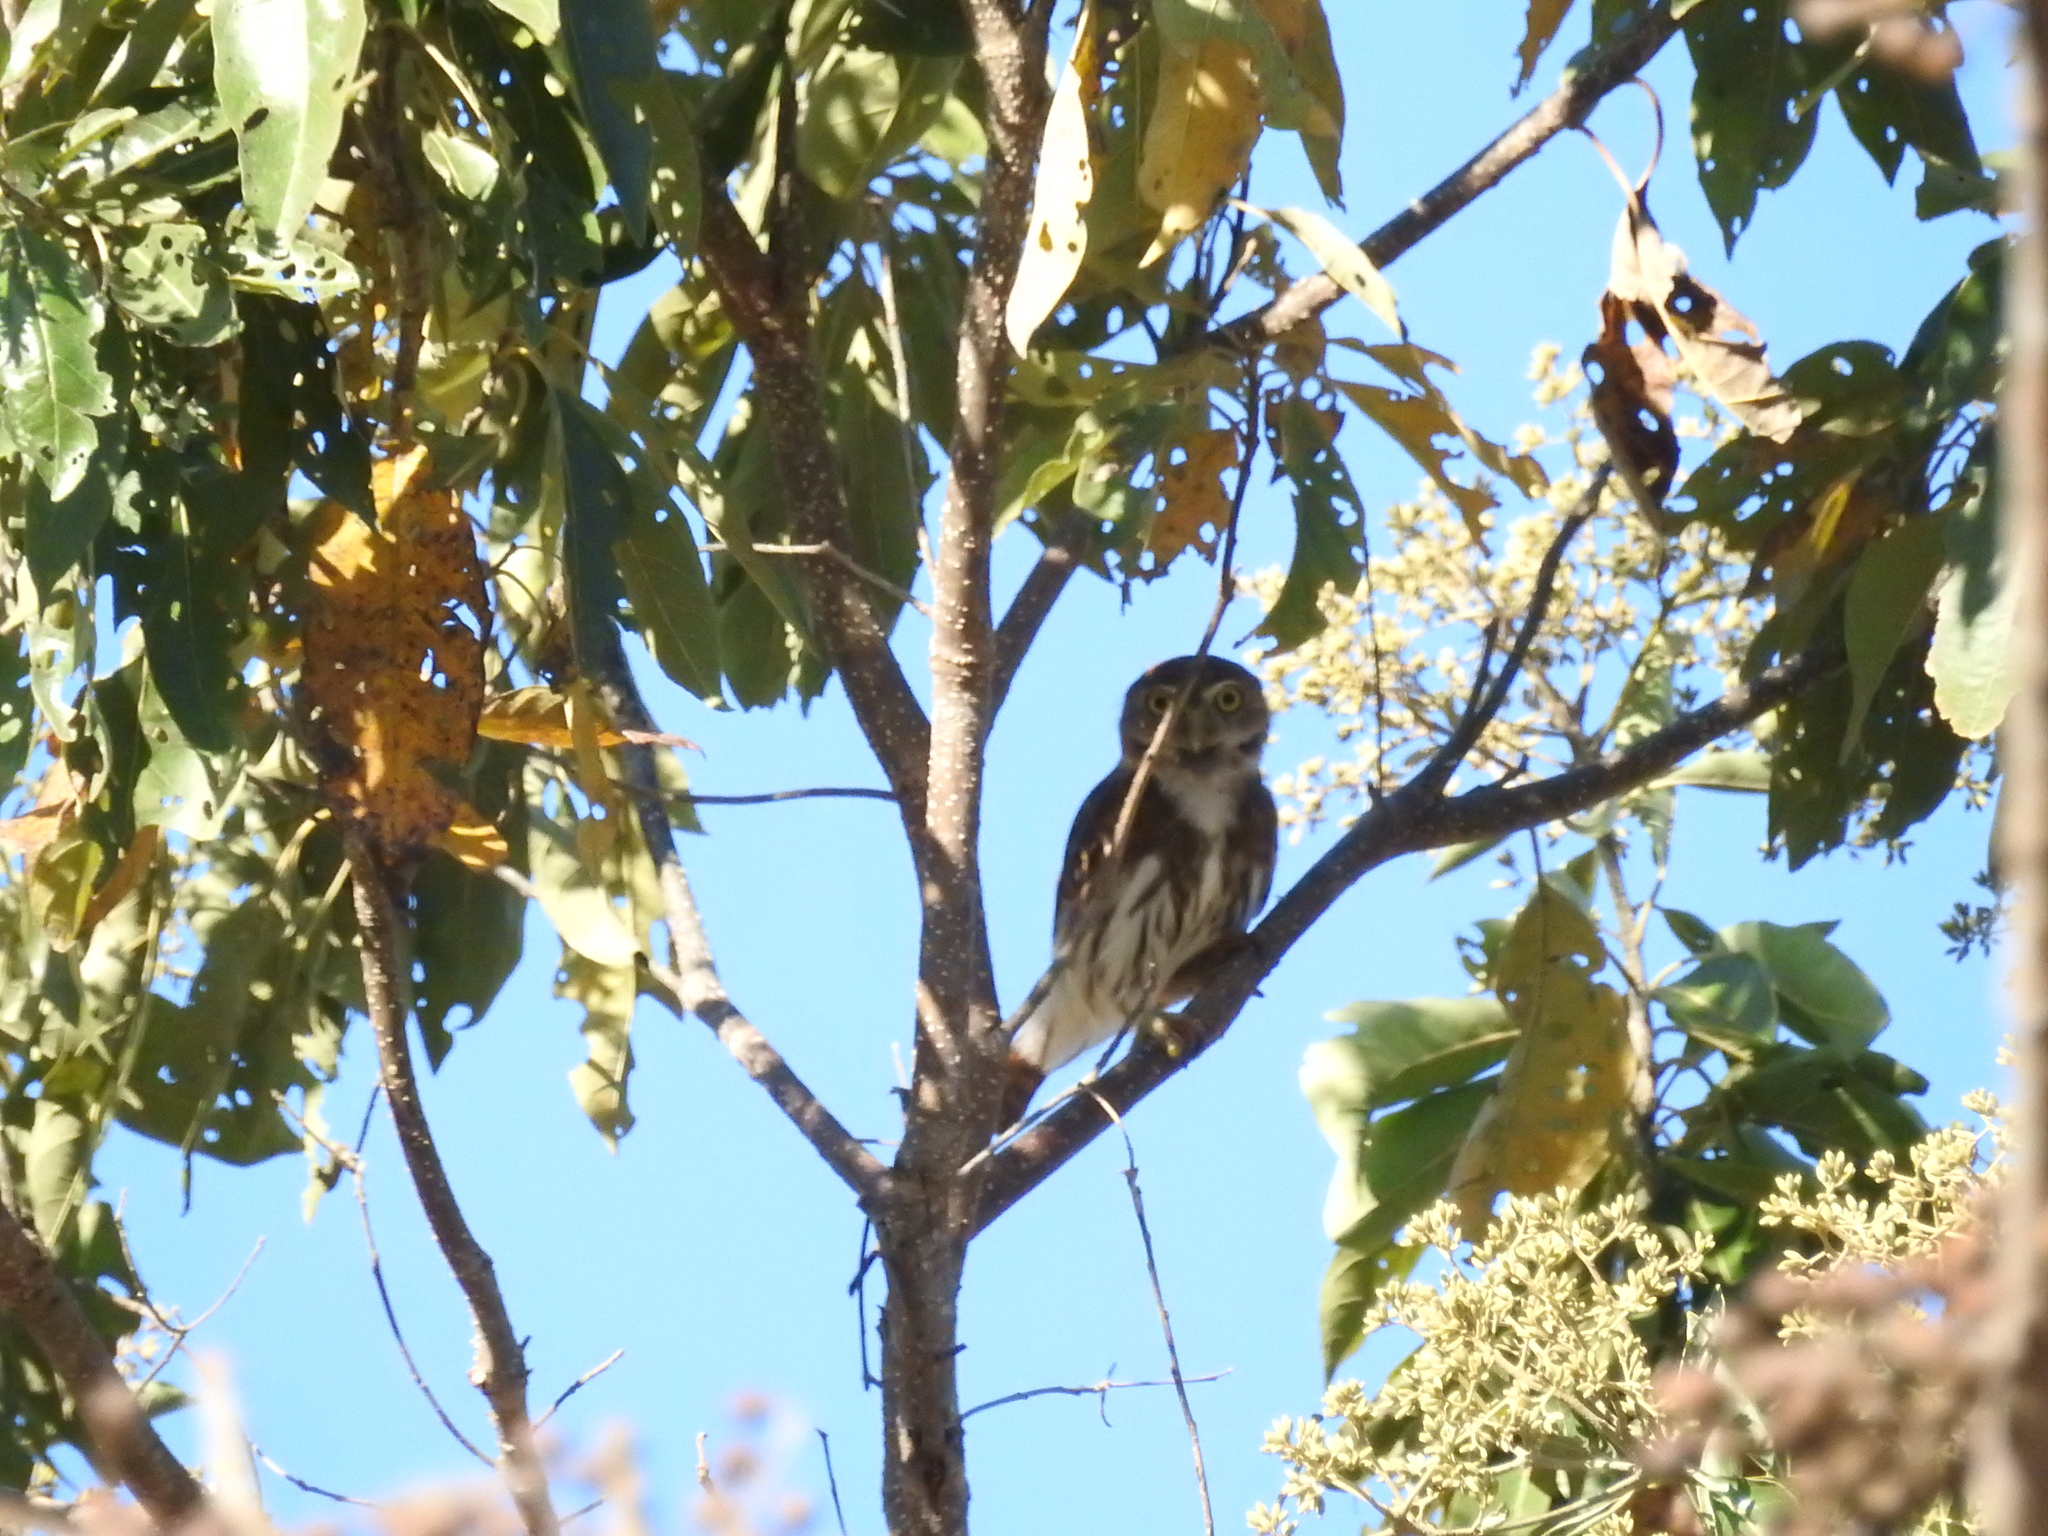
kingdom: Animalia
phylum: Chordata
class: Aves
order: Strigiformes
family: Strigidae
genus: Glaucidium
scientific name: Glaucidium brasilianum
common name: Ferruginous pygmy-owl
